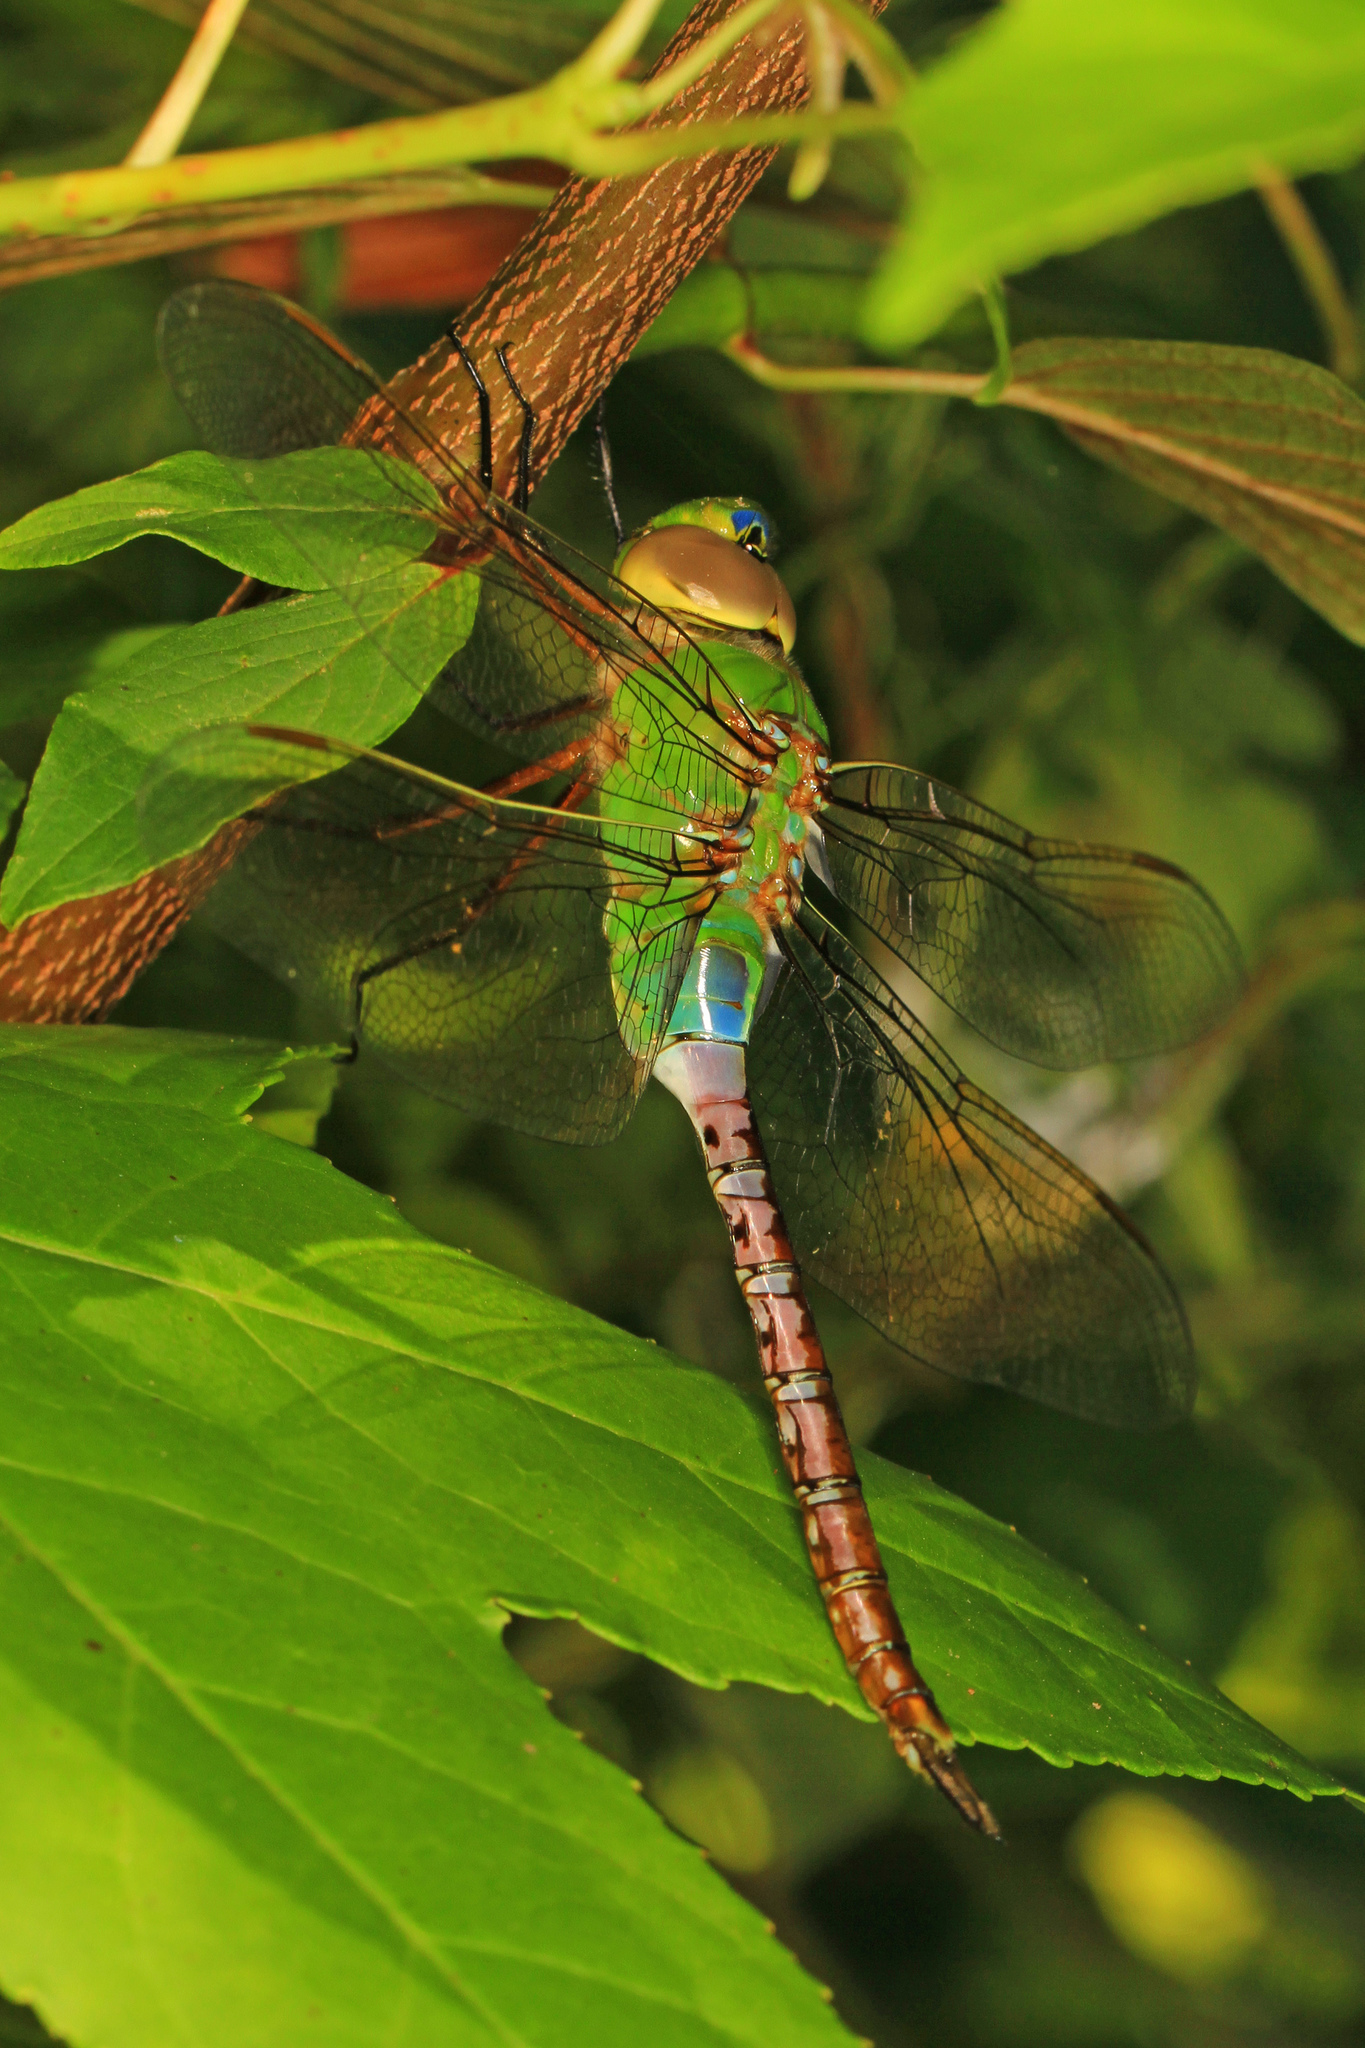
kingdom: Animalia
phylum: Arthropoda
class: Insecta
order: Odonata
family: Aeshnidae
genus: Anax
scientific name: Anax junius
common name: Common green darner
